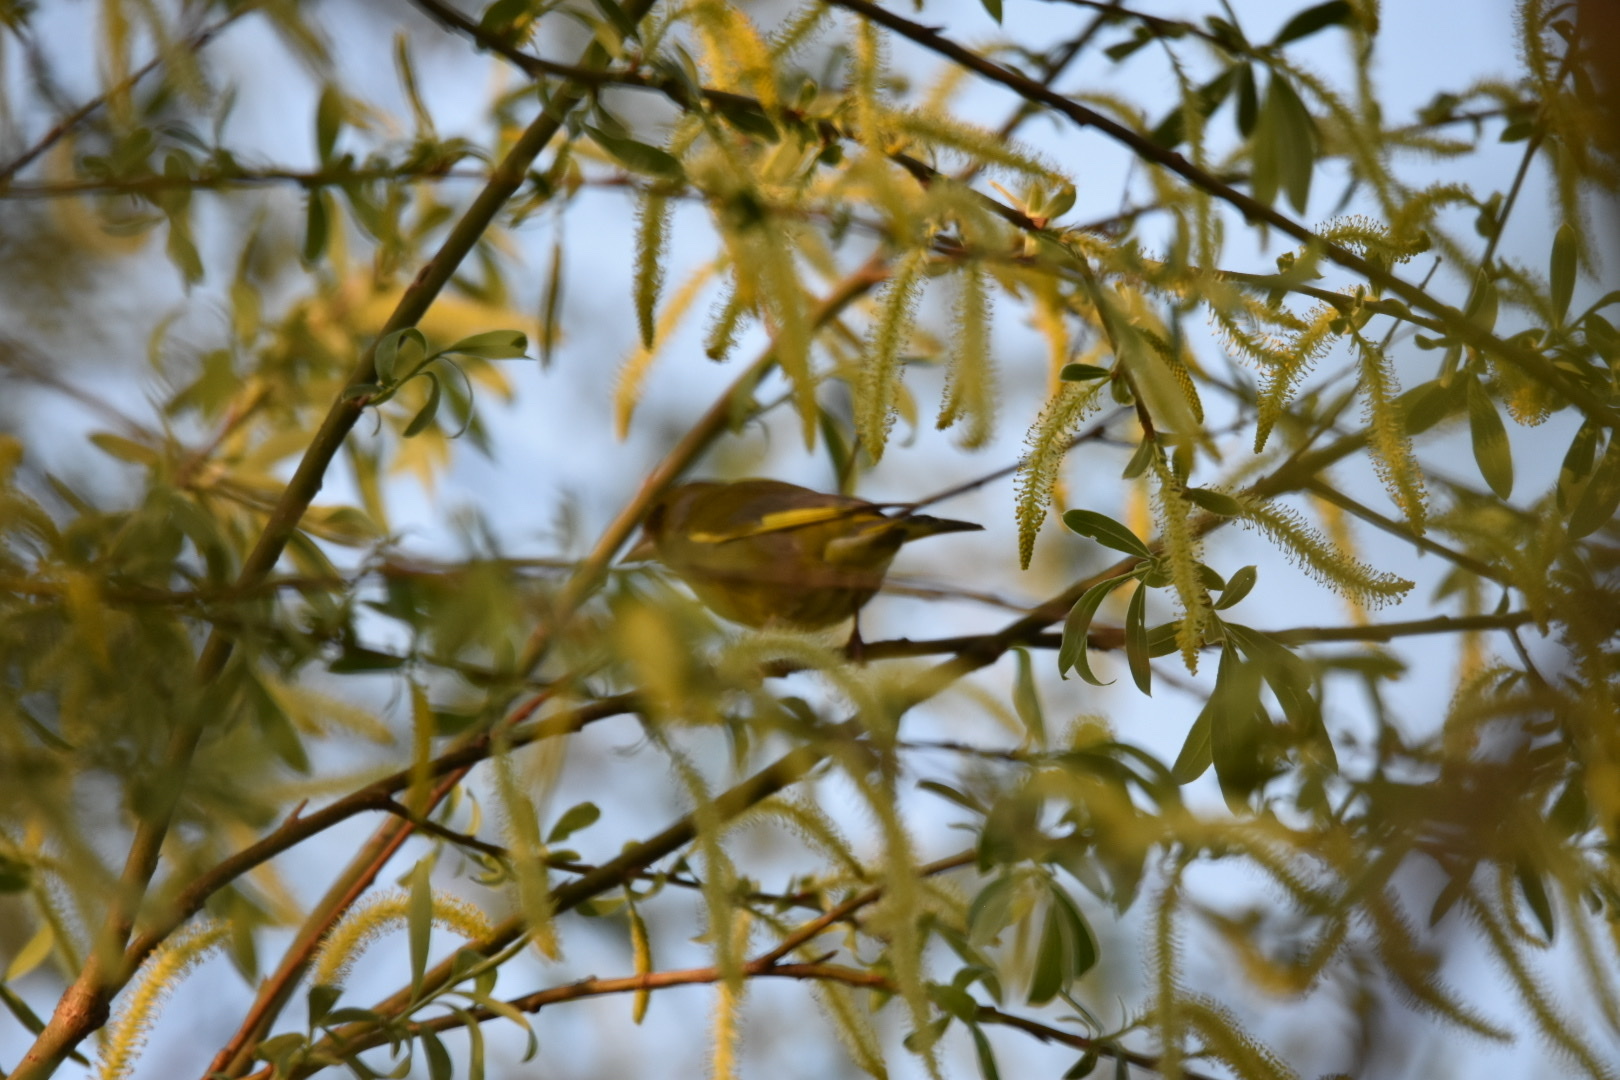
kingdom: Plantae
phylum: Tracheophyta
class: Liliopsida
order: Poales
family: Poaceae
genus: Chloris
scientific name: Chloris chloris
